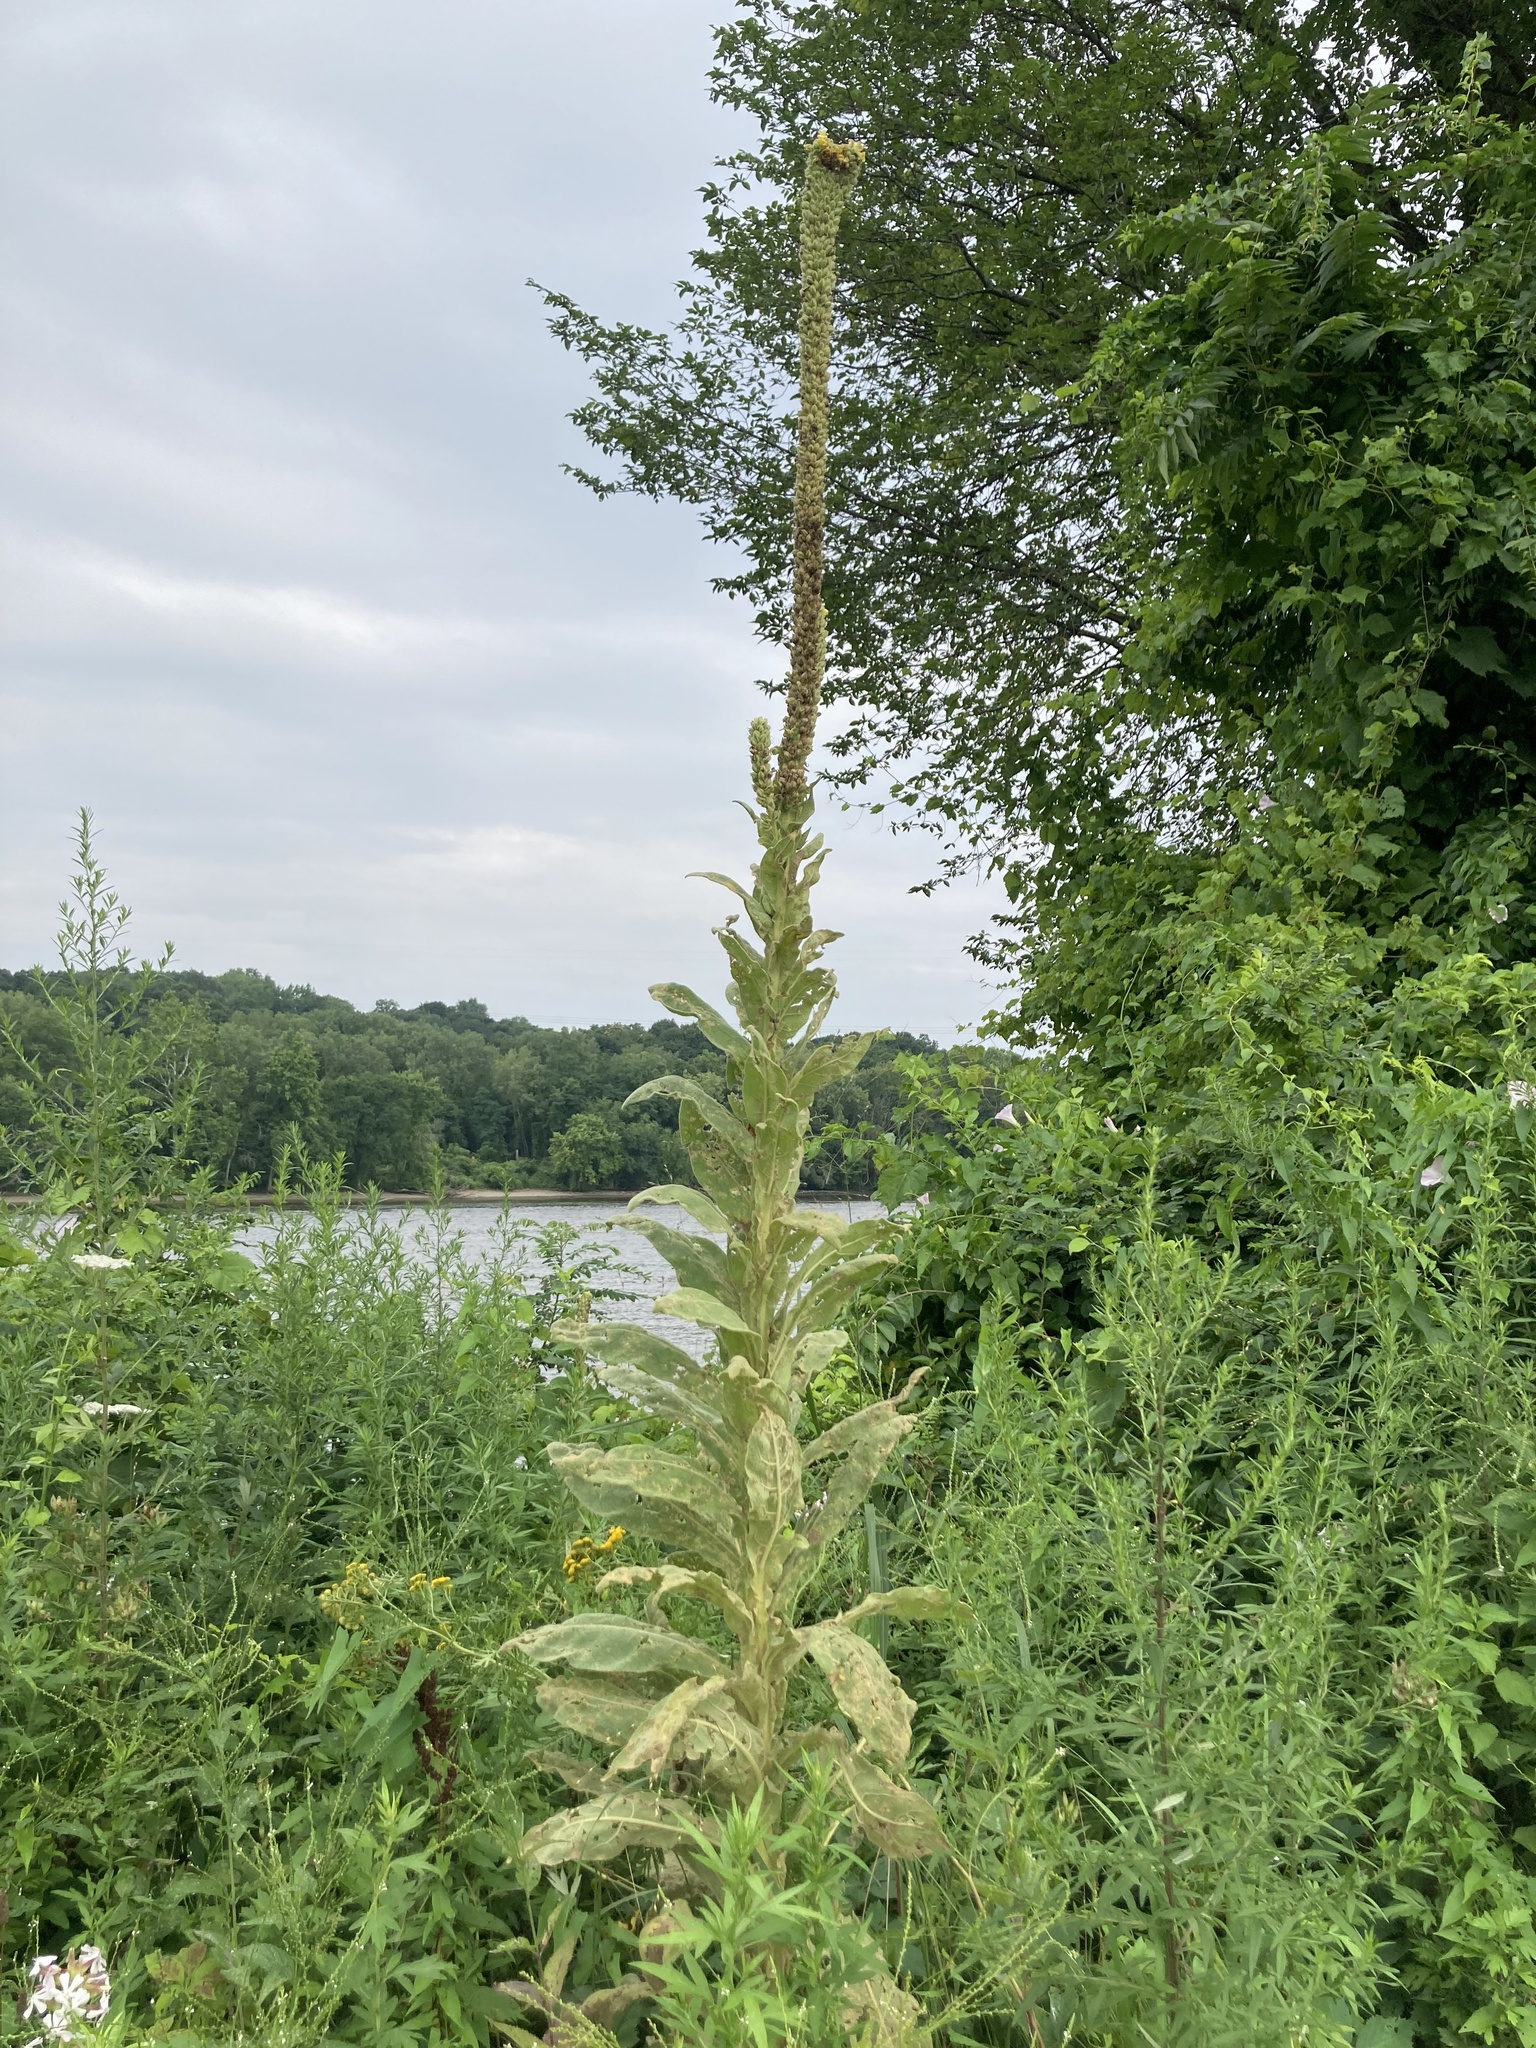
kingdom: Plantae
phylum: Tracheophyta
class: Magnoliopsida
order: Lamiales
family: Scrophulariaceae
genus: Verbascum
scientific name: Verbascum thapsus
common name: Common mullein
